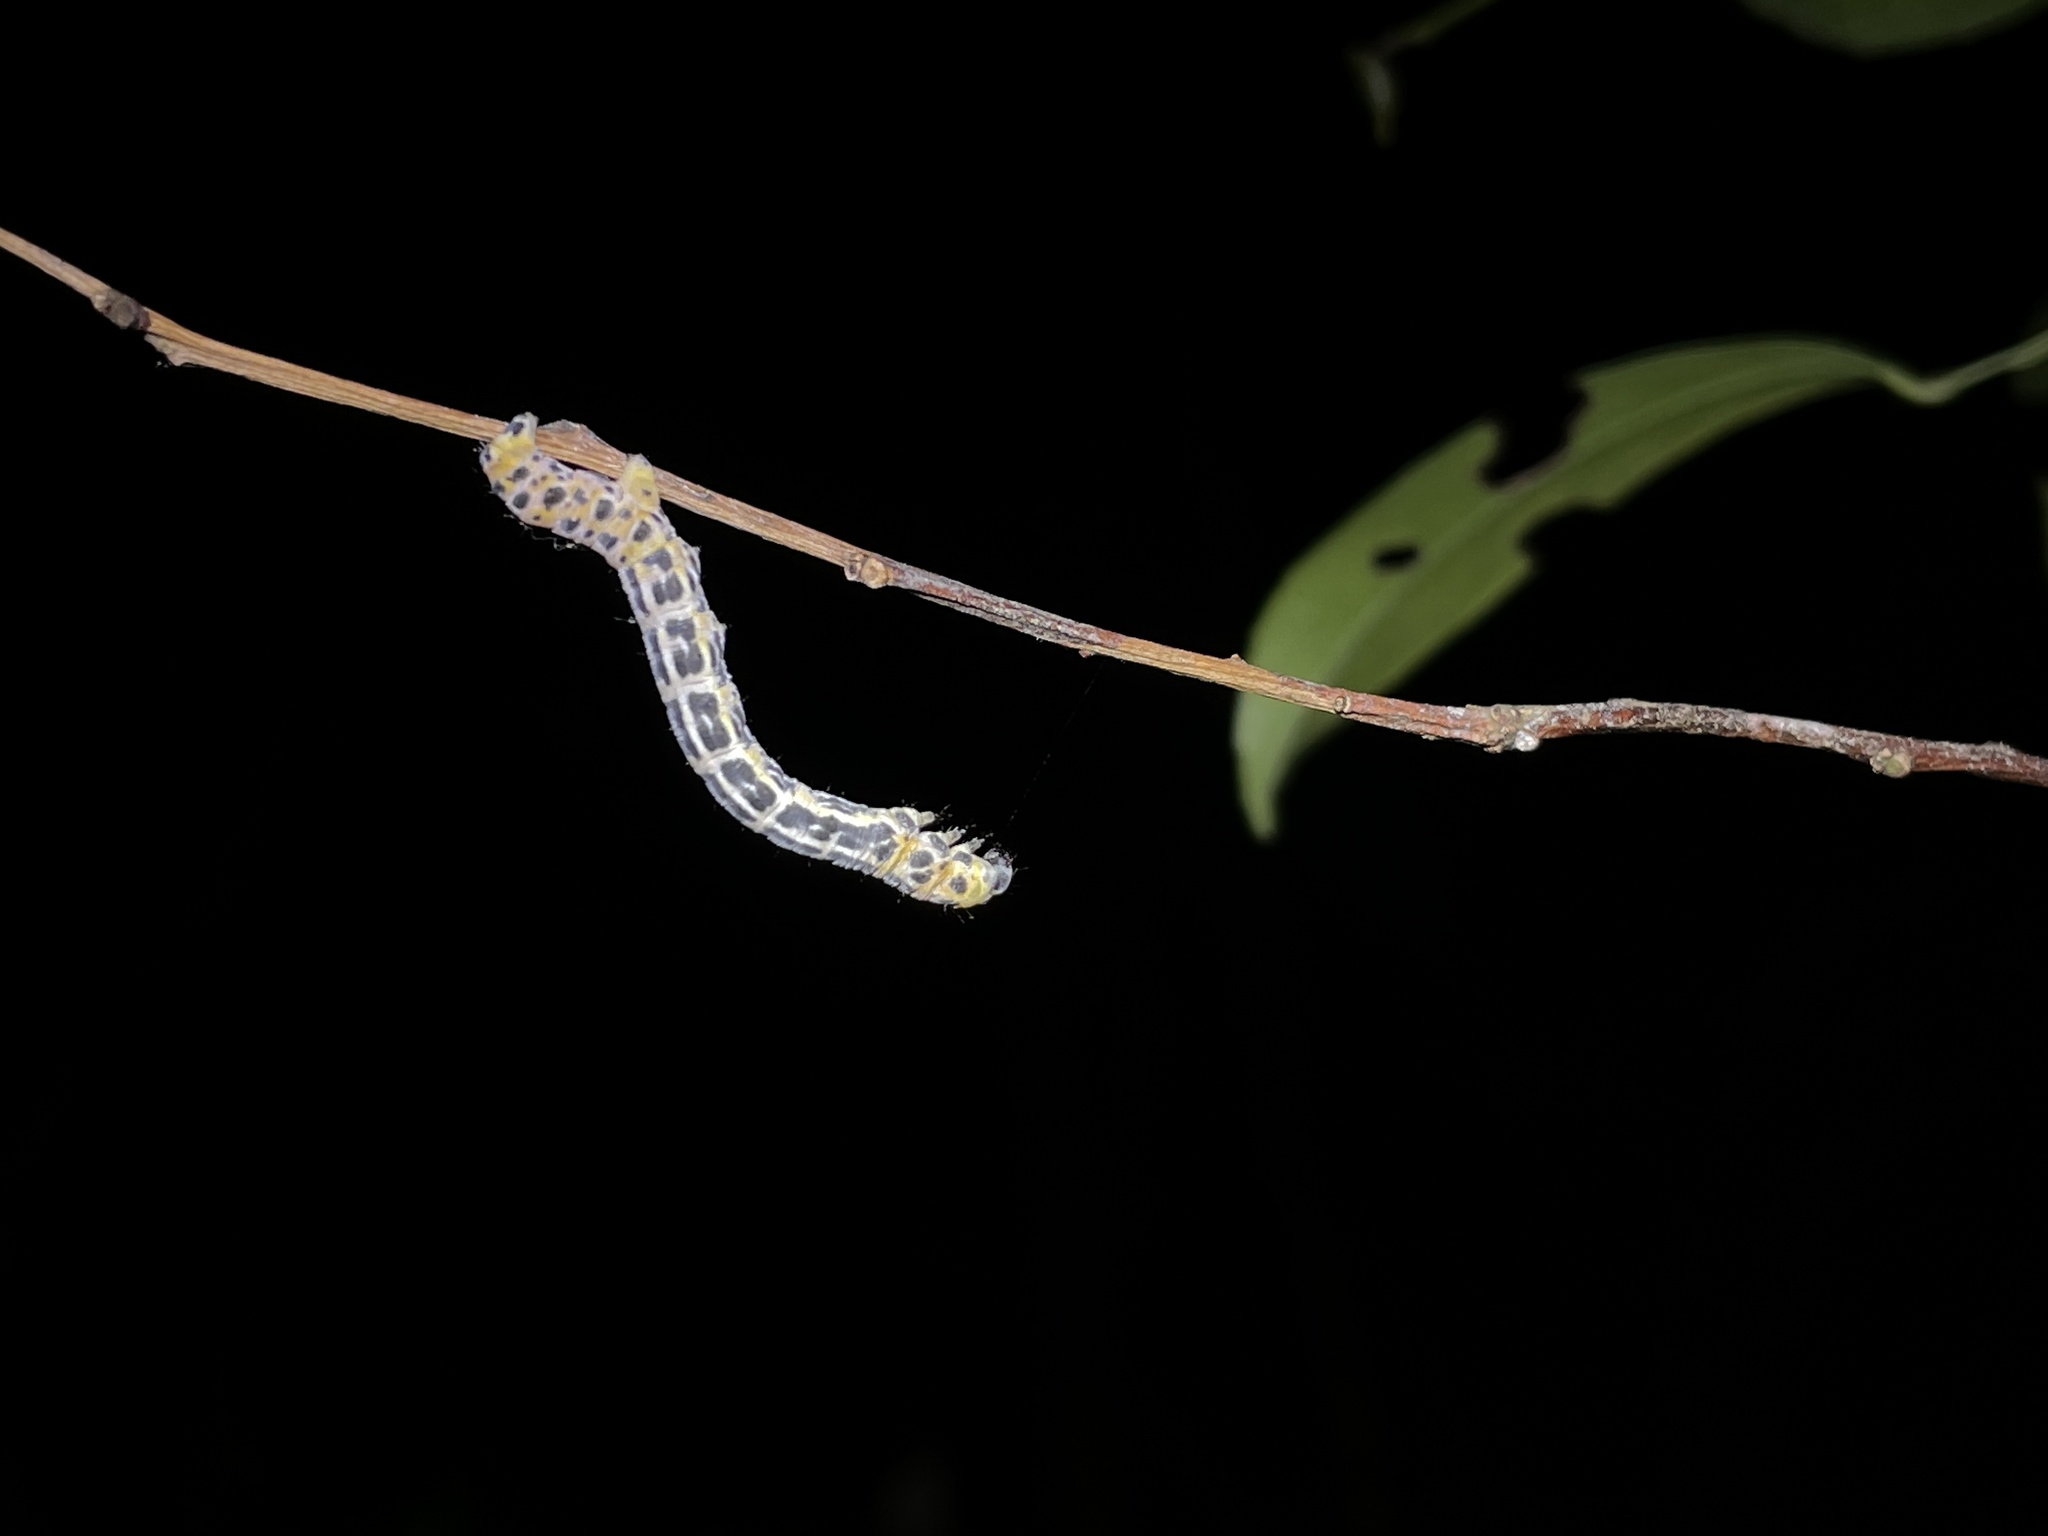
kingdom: Animalia
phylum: Arthropoda
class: Insecta
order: Lepidoptera
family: Geometridae
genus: Obeidia
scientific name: Obeidia Epobeidia tigrata
